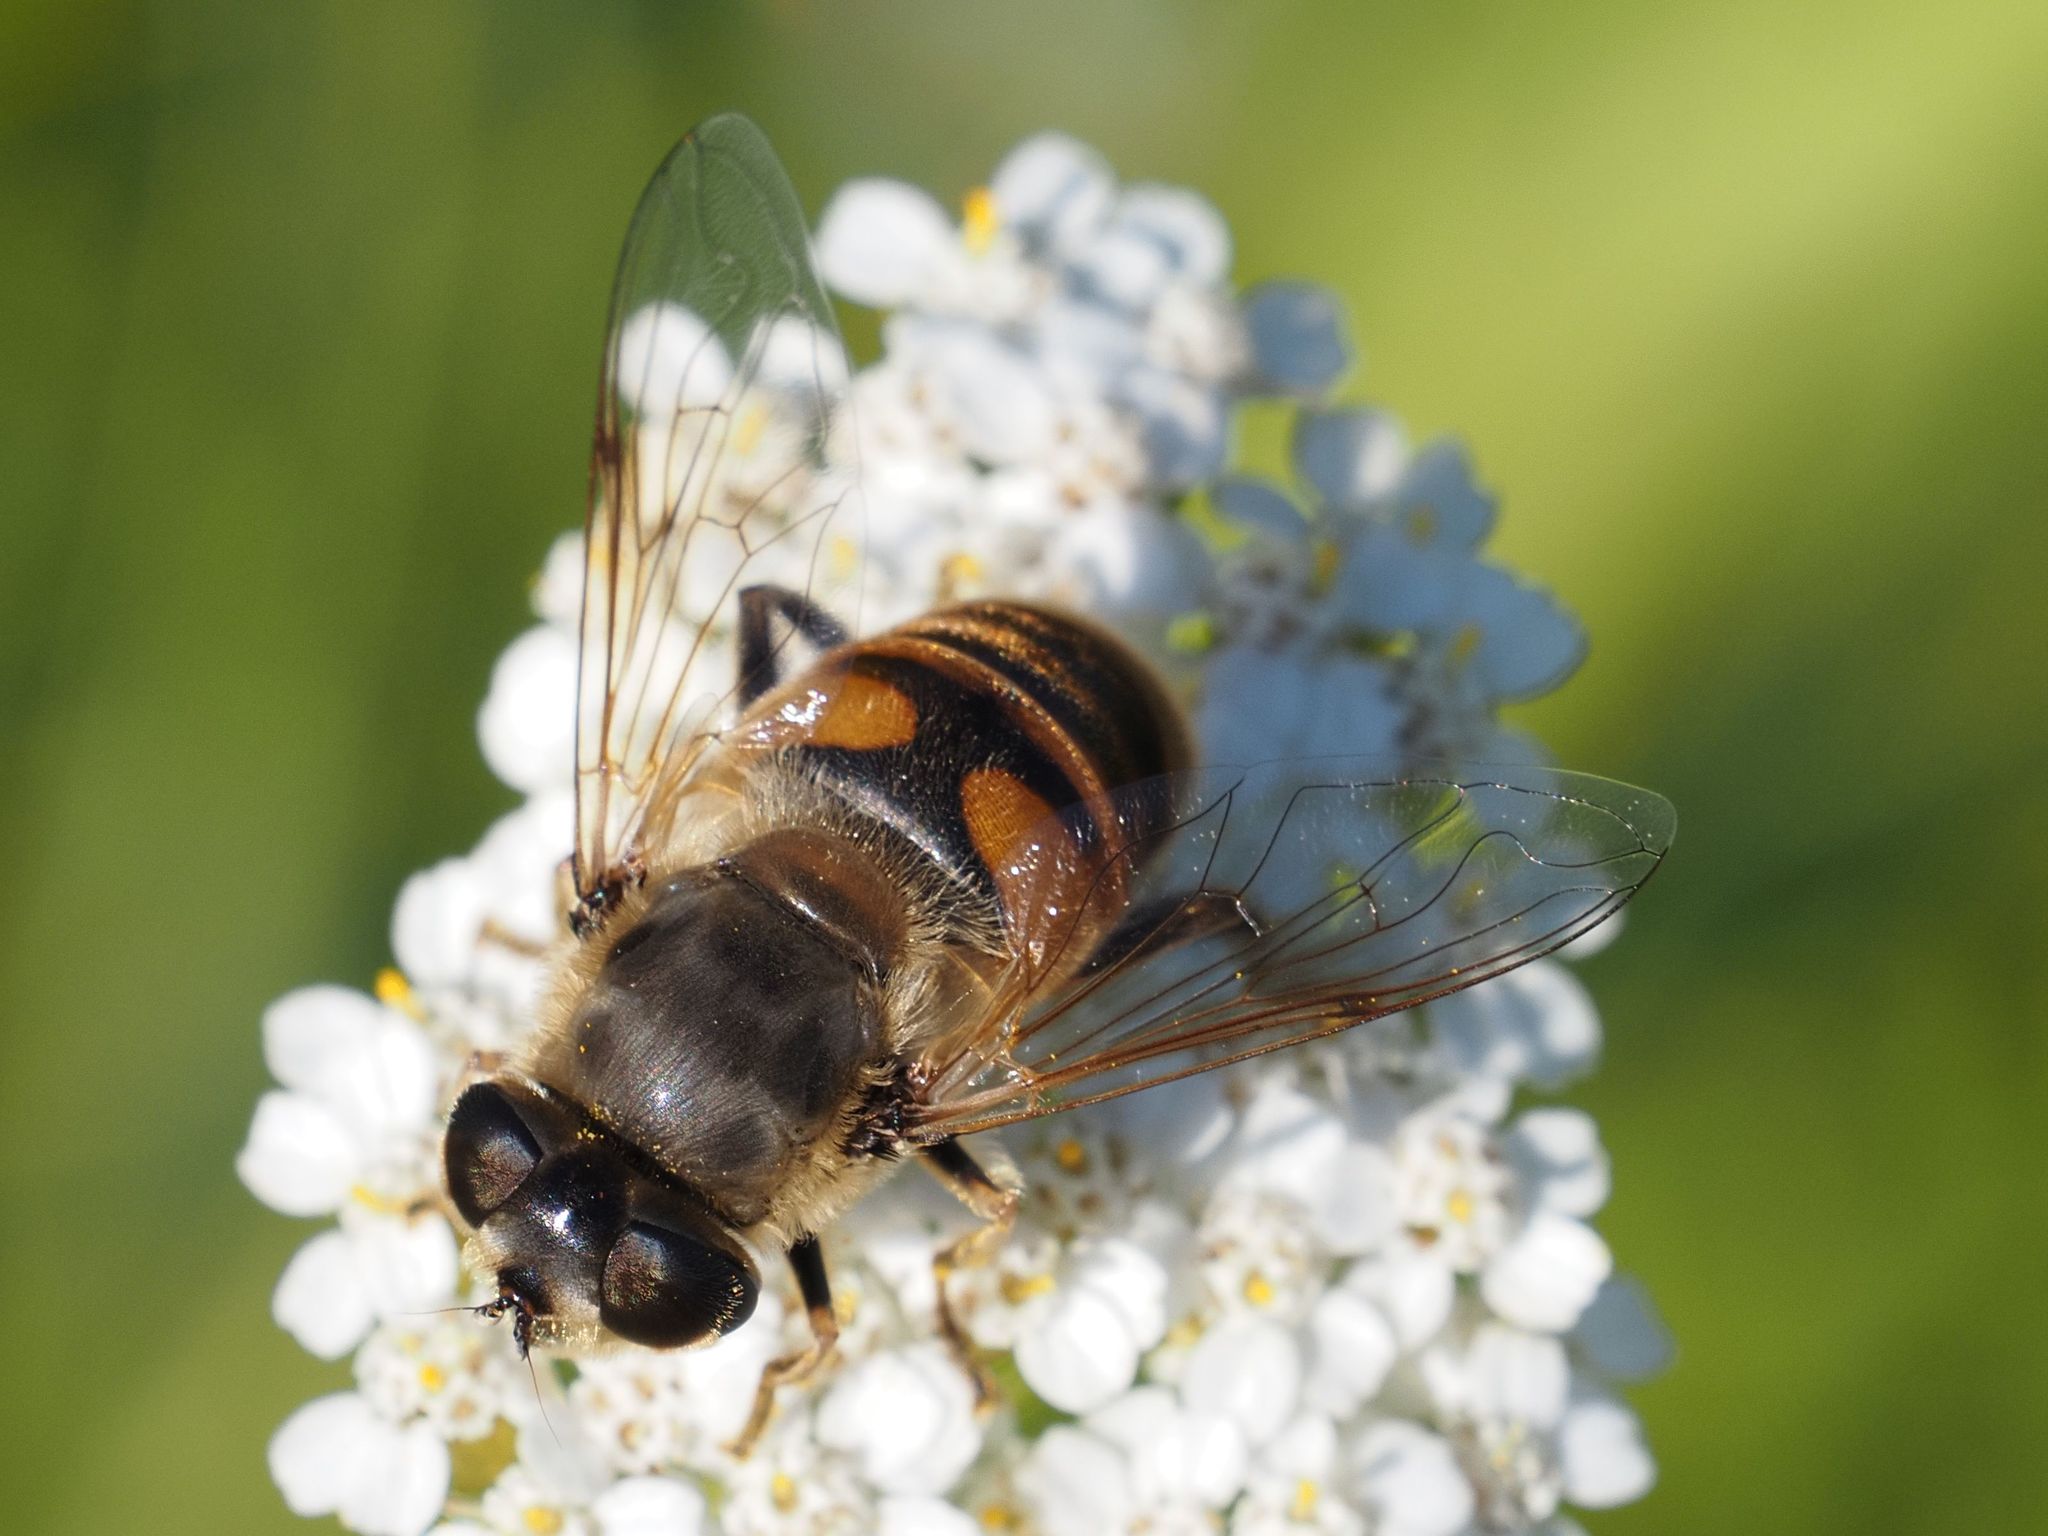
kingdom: Animalia
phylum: Arthropoda
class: Insecta
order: Diptera
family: Syrphidae
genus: Eristalis
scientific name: Eristalis tenax
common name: Drone fly
